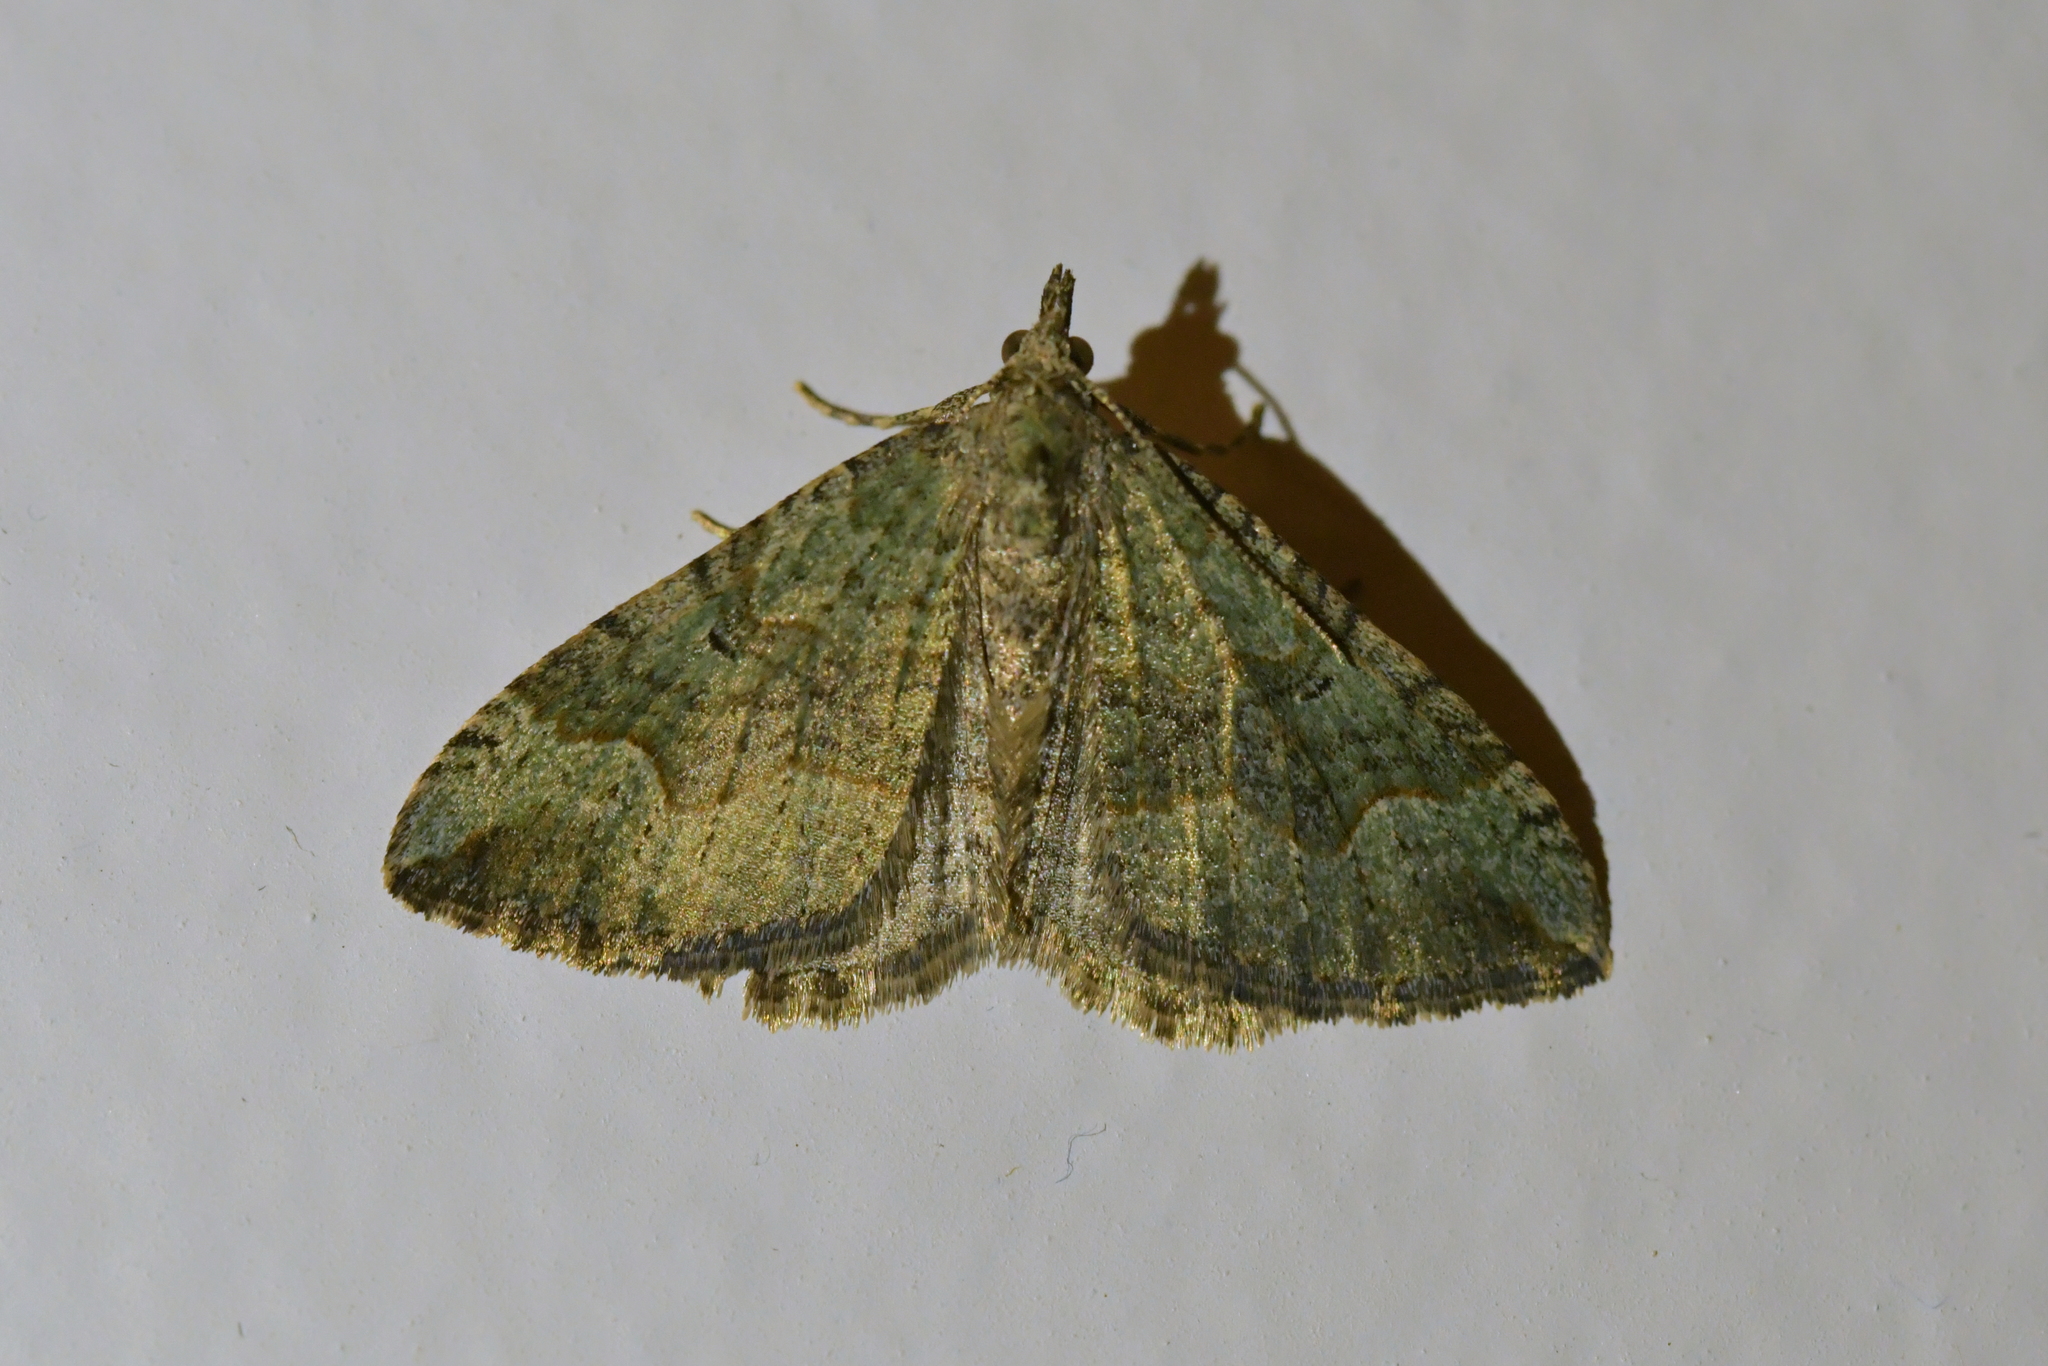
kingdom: Animalia
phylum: Arthropoda
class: Insecta
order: Lepidoptera
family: Geometridae
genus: Epyaxa
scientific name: Epyaxa rosearia
